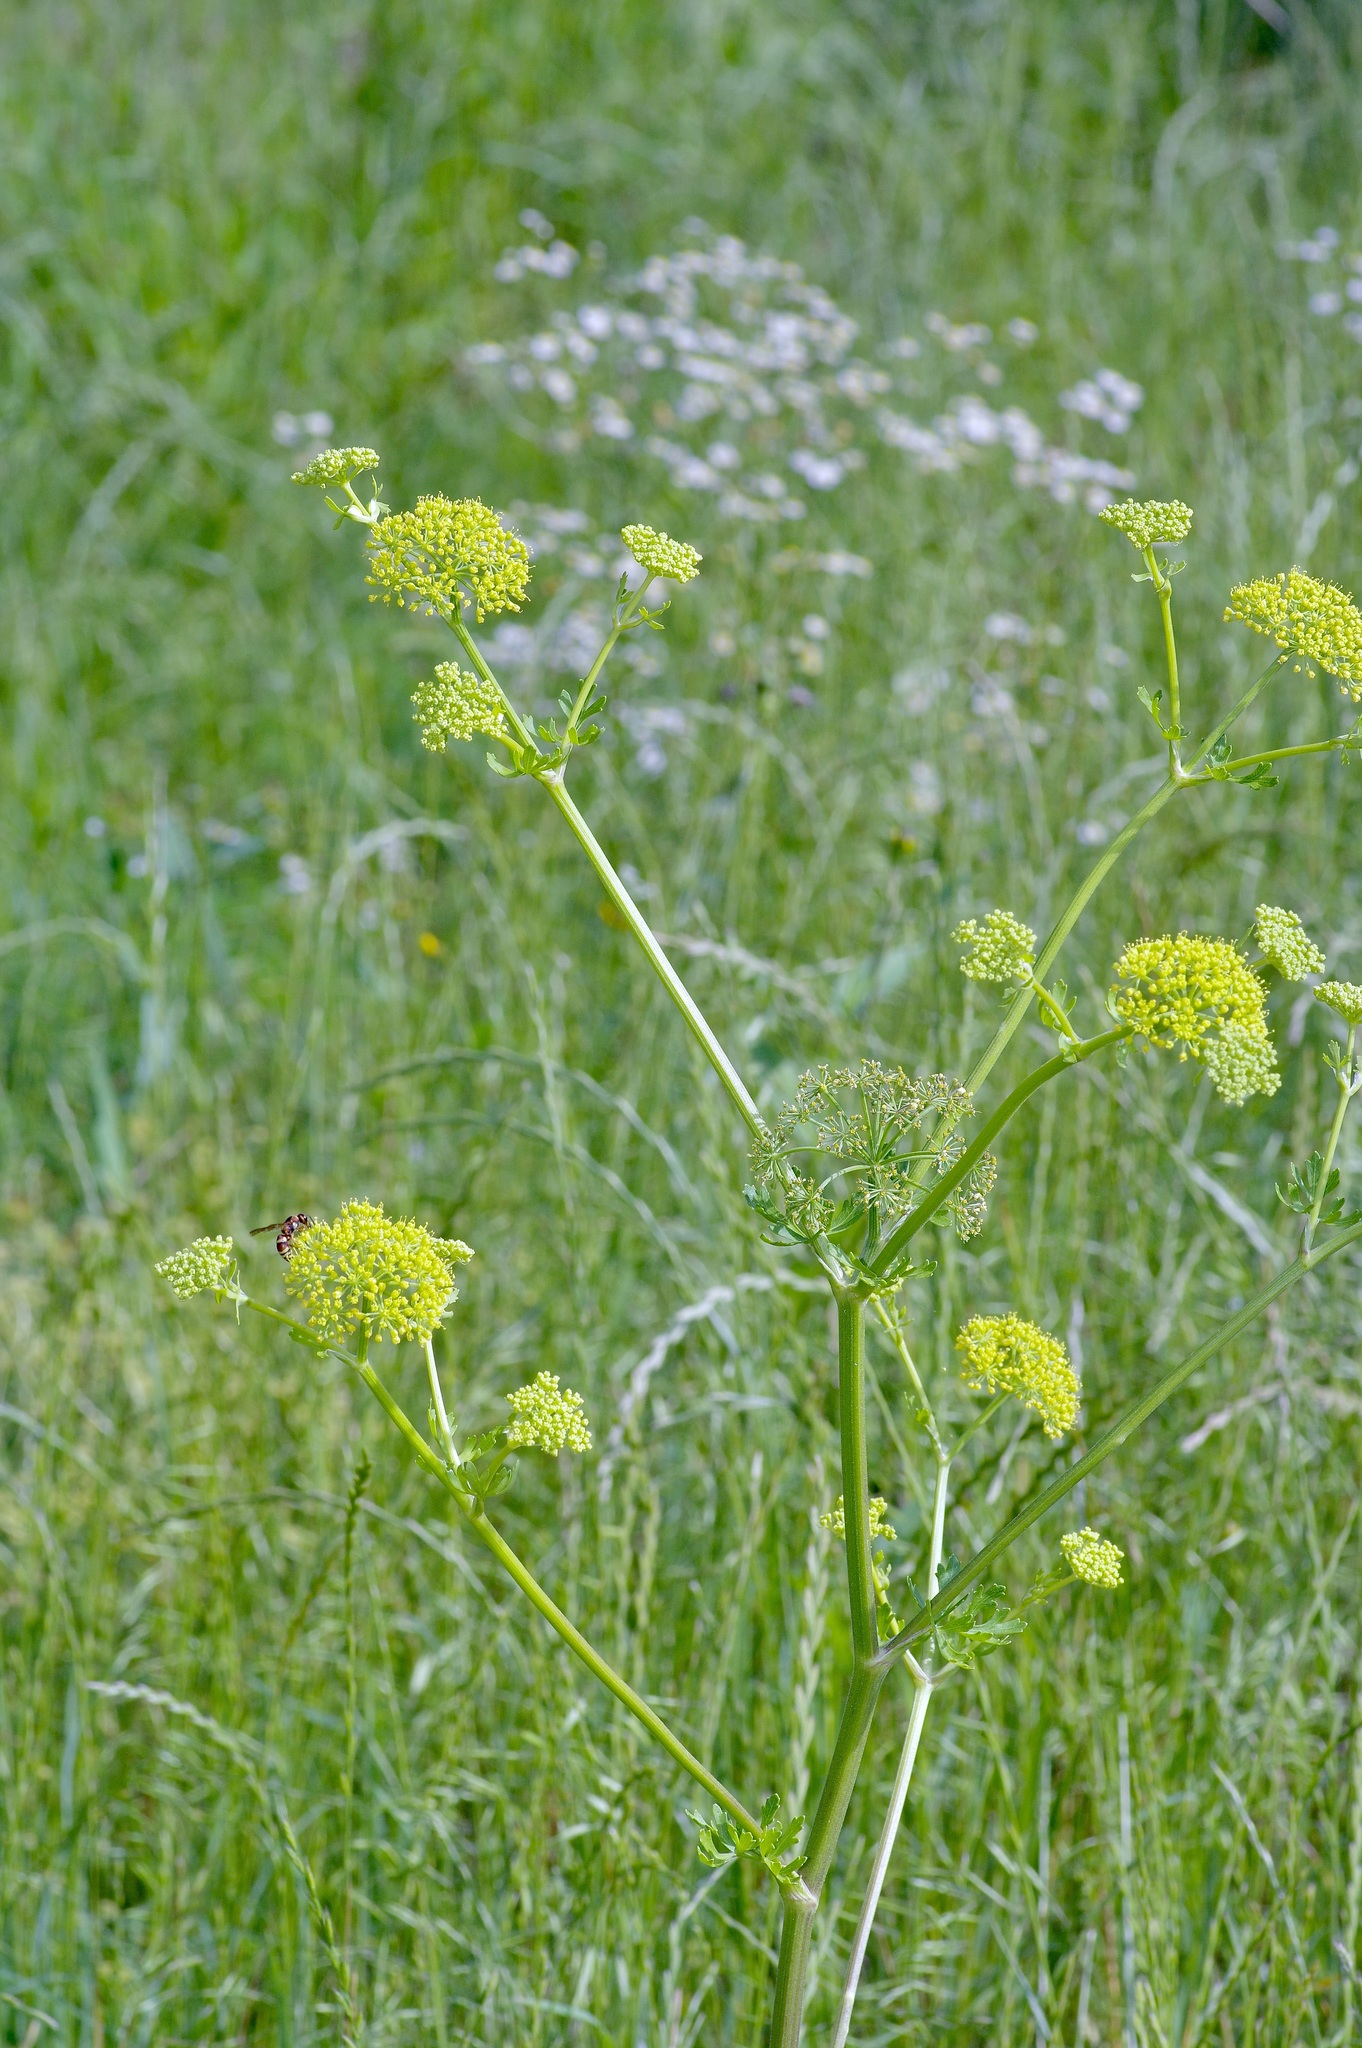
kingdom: Plantae
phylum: Tracheophyta
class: Magnoliopsida
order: Apiales
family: Apiaceae
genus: Polytaenia
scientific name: Polytaenia texana
